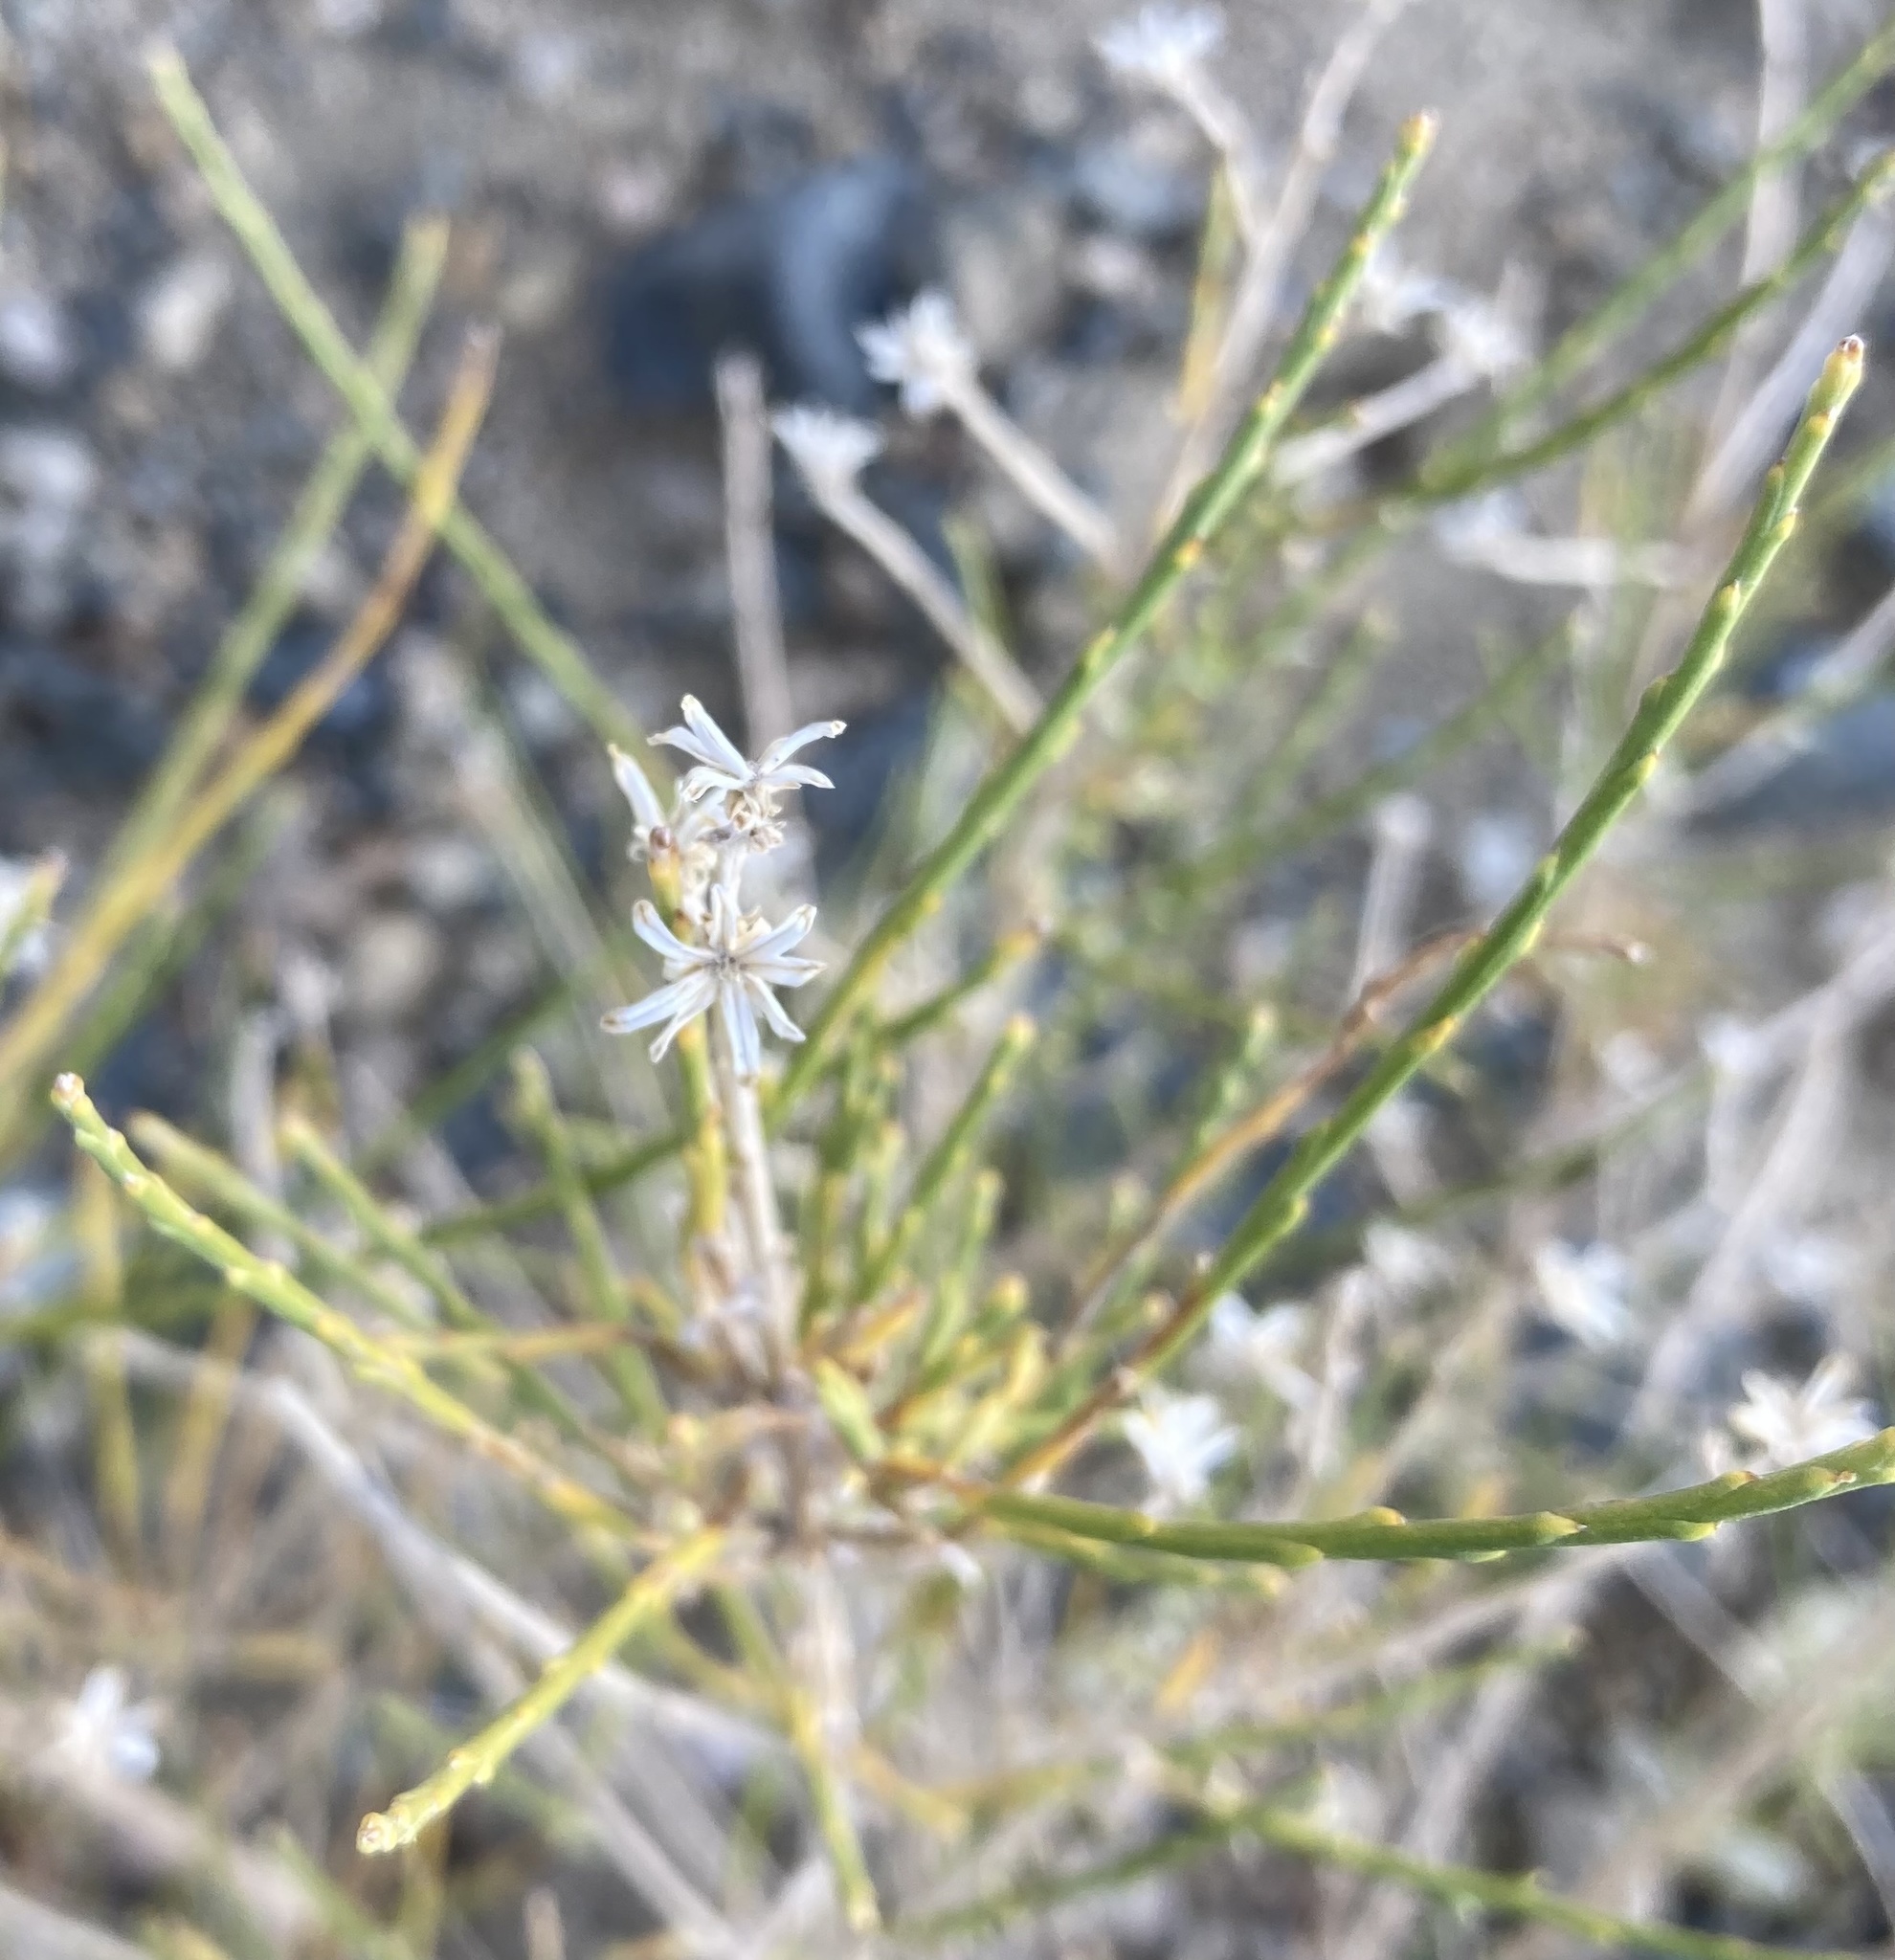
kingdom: Plantae
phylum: Tracheophyta
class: Magnoliopsida
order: Asterales
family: Asteraceae
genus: Lepidospartum
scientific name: Lepidospartum squamatum
